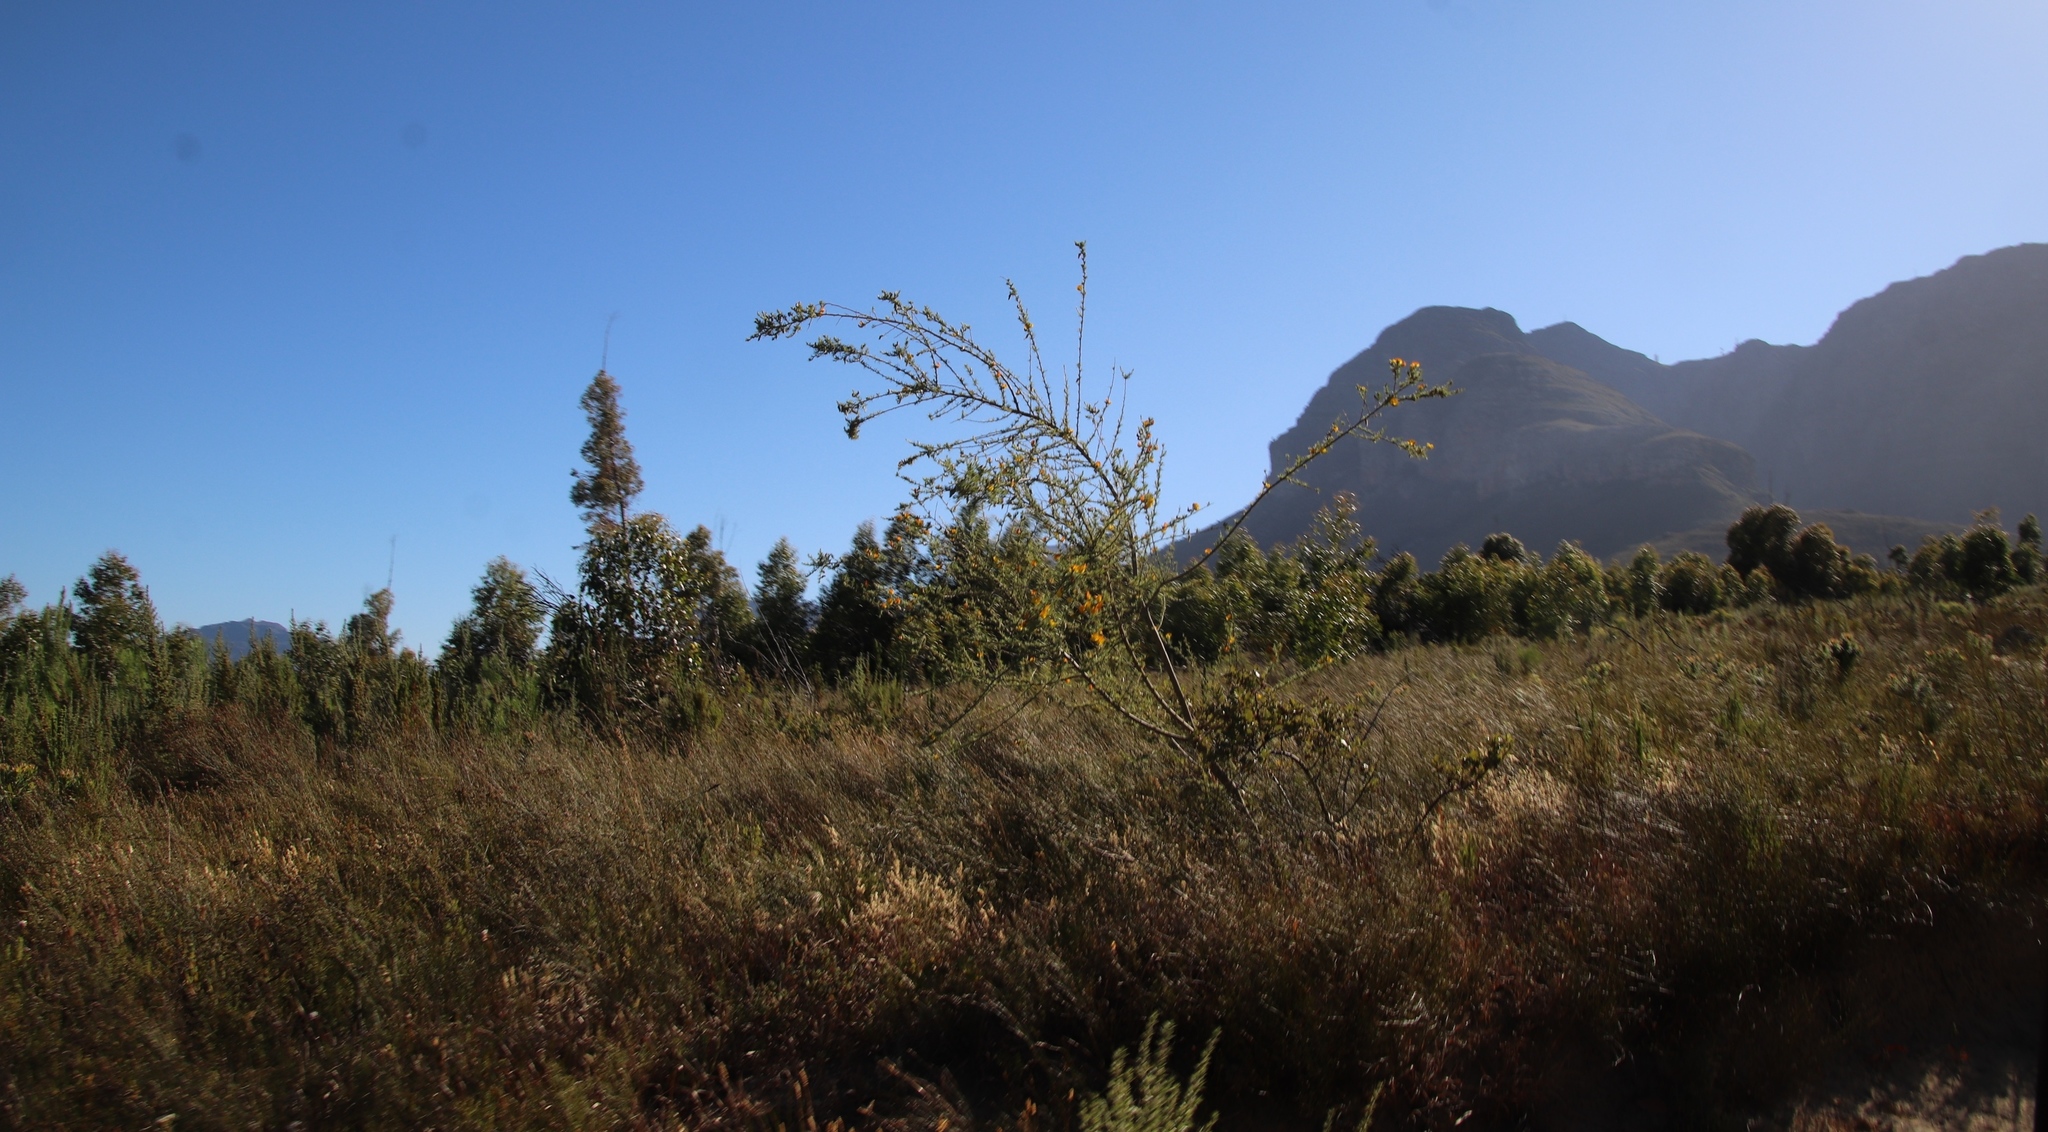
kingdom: Plantae
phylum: Tracheophyta
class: Magnoliopsida
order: Fabales
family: Fabaceae
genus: Aspalathus
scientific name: Aspalathus uniflora
